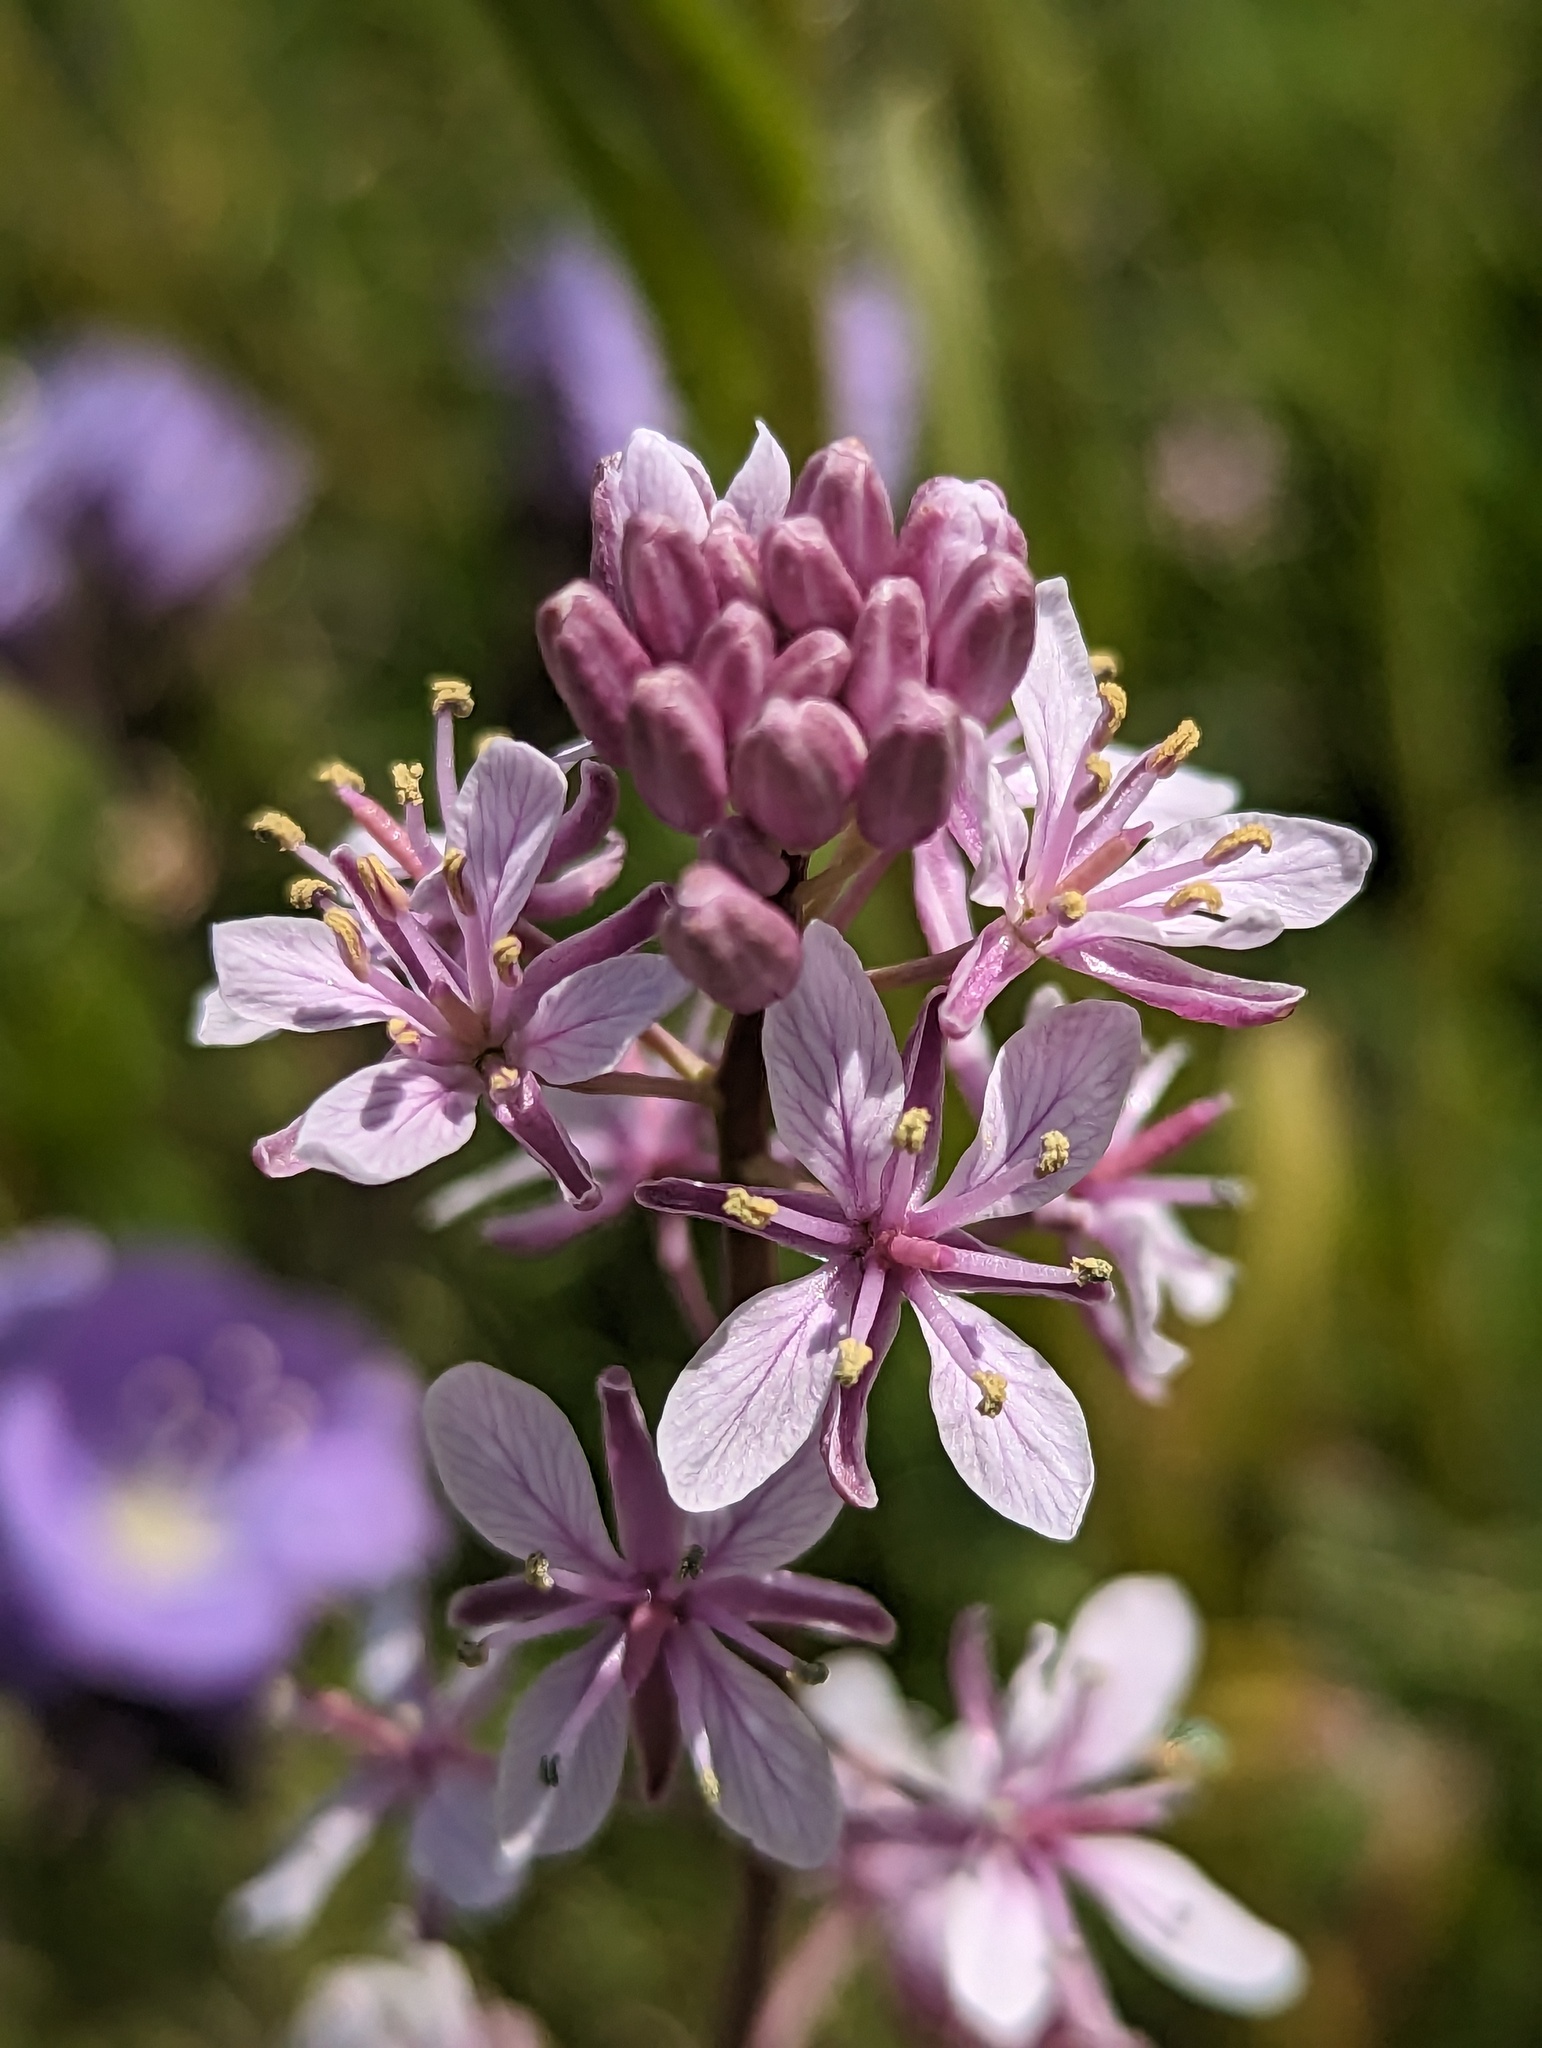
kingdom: Plantae
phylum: Tracheophyta
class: Magnoliopsida
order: Brassicales
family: Brassicaceae
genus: Streptanthus
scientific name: Streptanthus anceps
